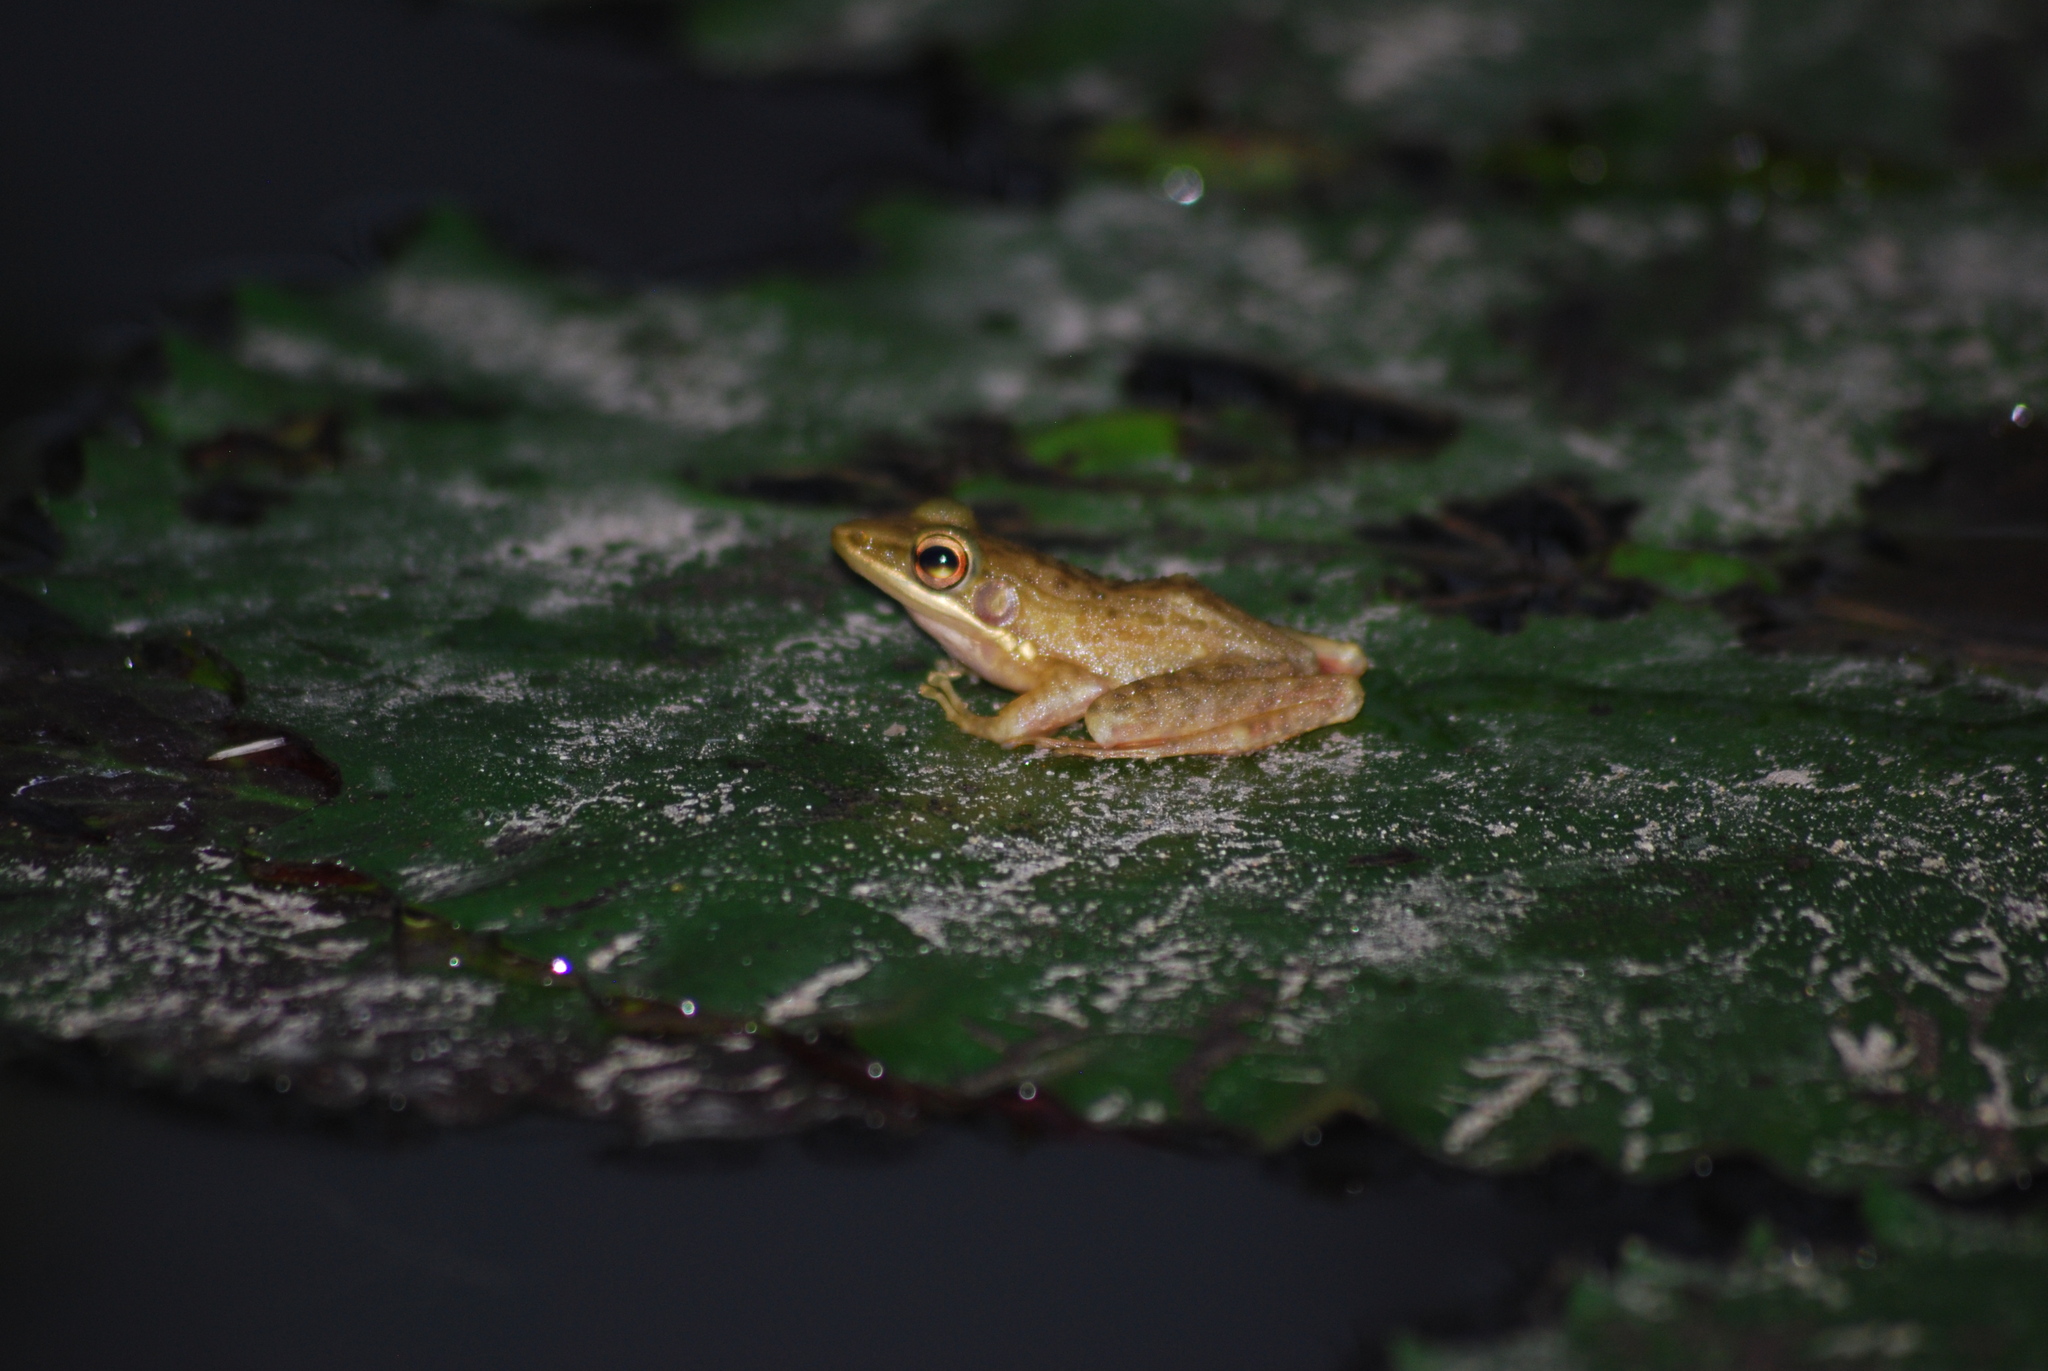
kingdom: Animalia
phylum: Chordata
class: Amphibia
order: Anura
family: Ranidae
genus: Chalcorana
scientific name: Chalcorana chalconota
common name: Schlegel's frog
